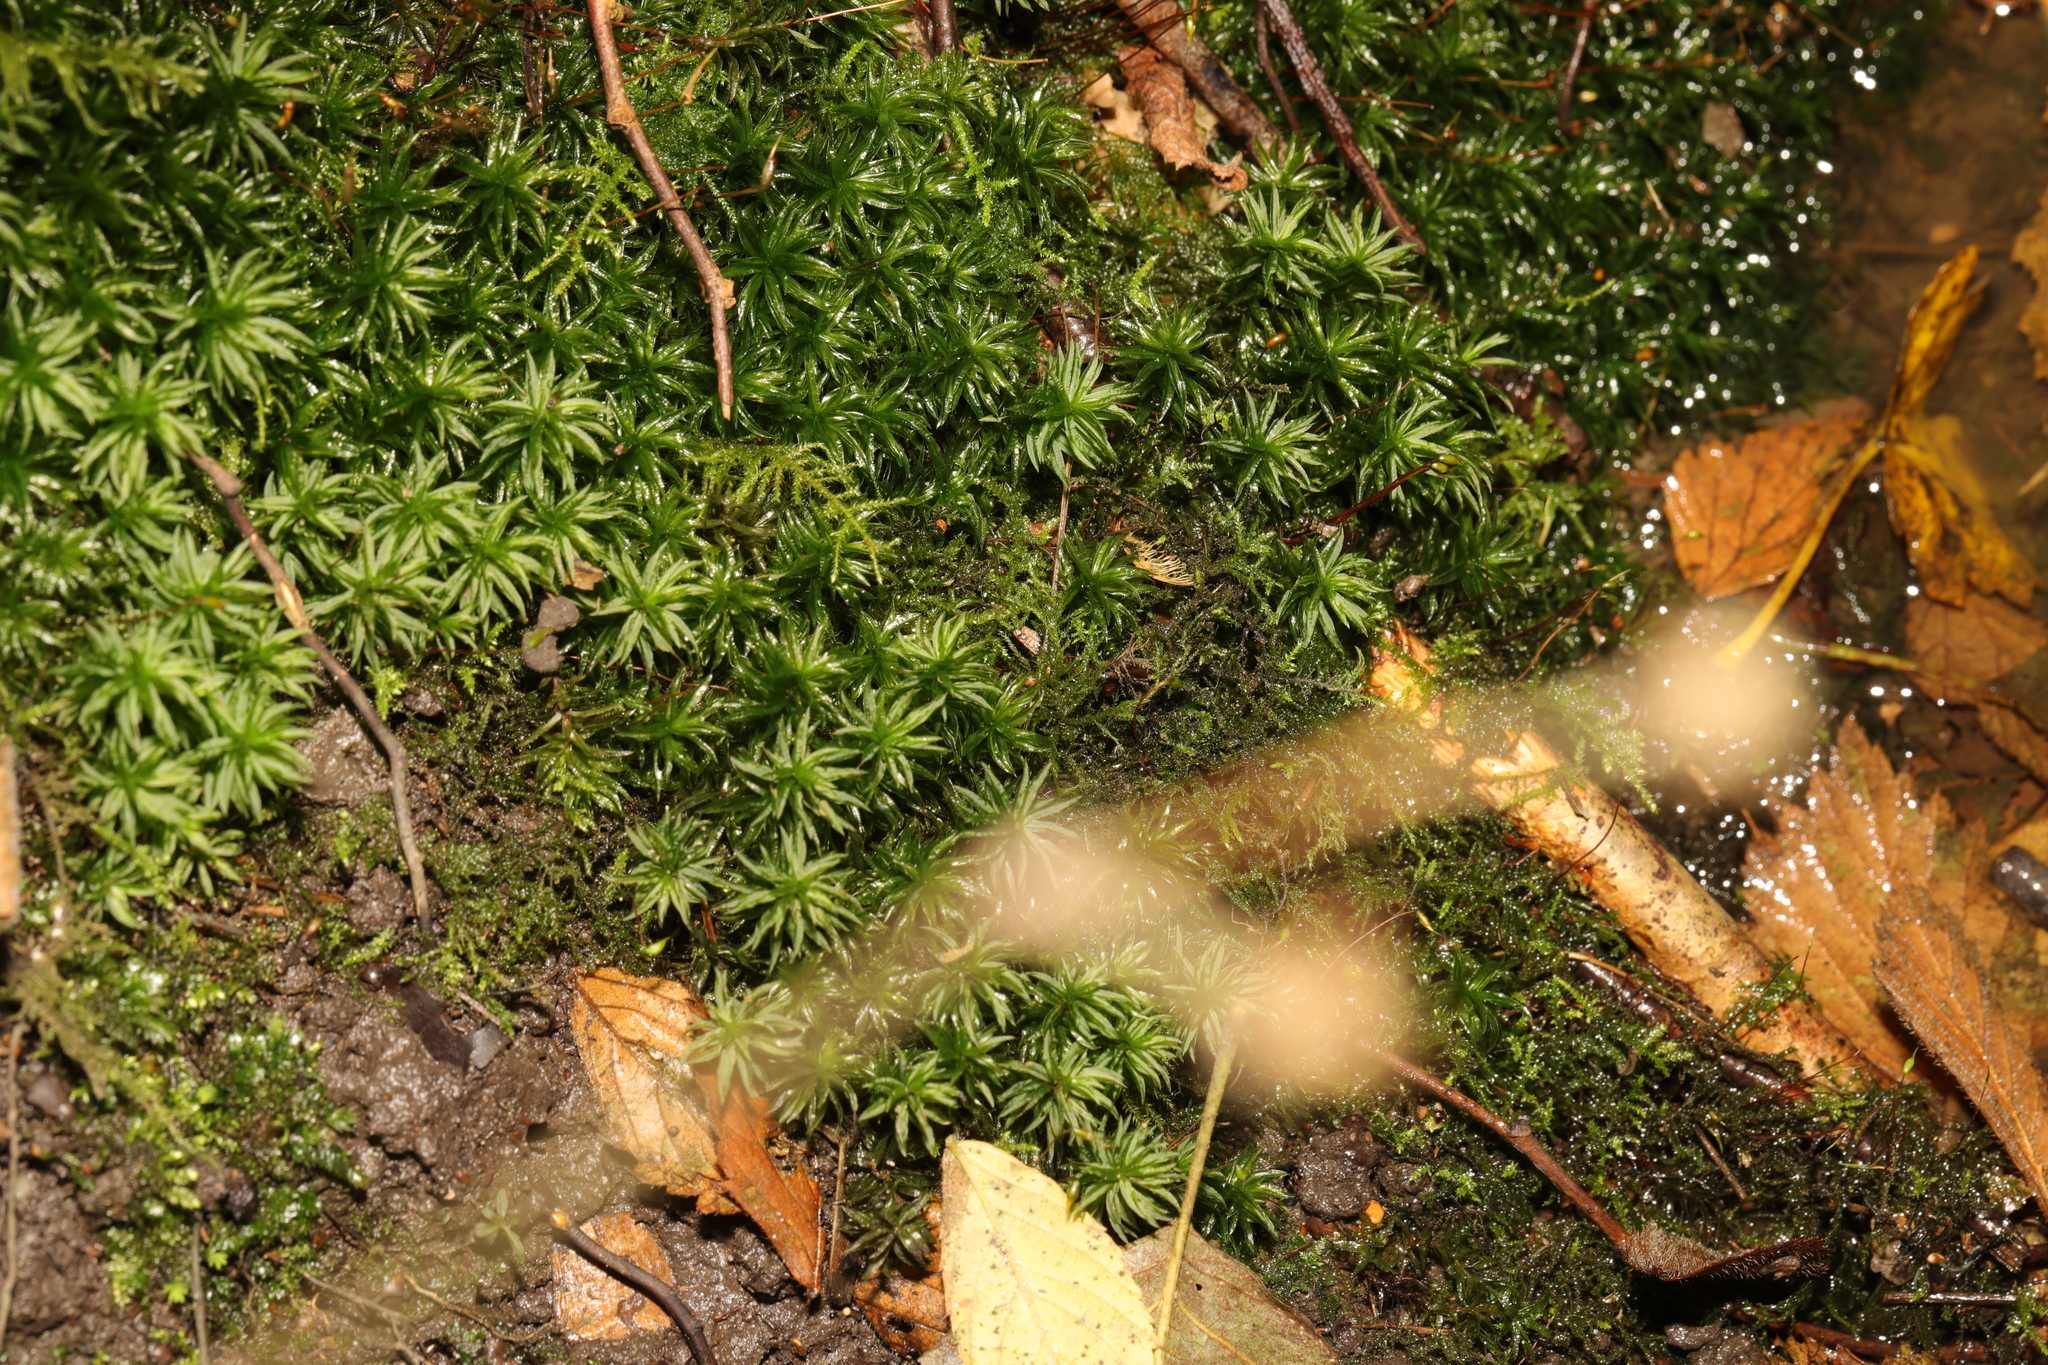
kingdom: Plantae
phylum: Bryophyta
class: Polytrichopsida
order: Polytrichales
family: Polytrichaceae
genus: Atrichum
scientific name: Atrichum undulatum
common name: Common smoothcap
